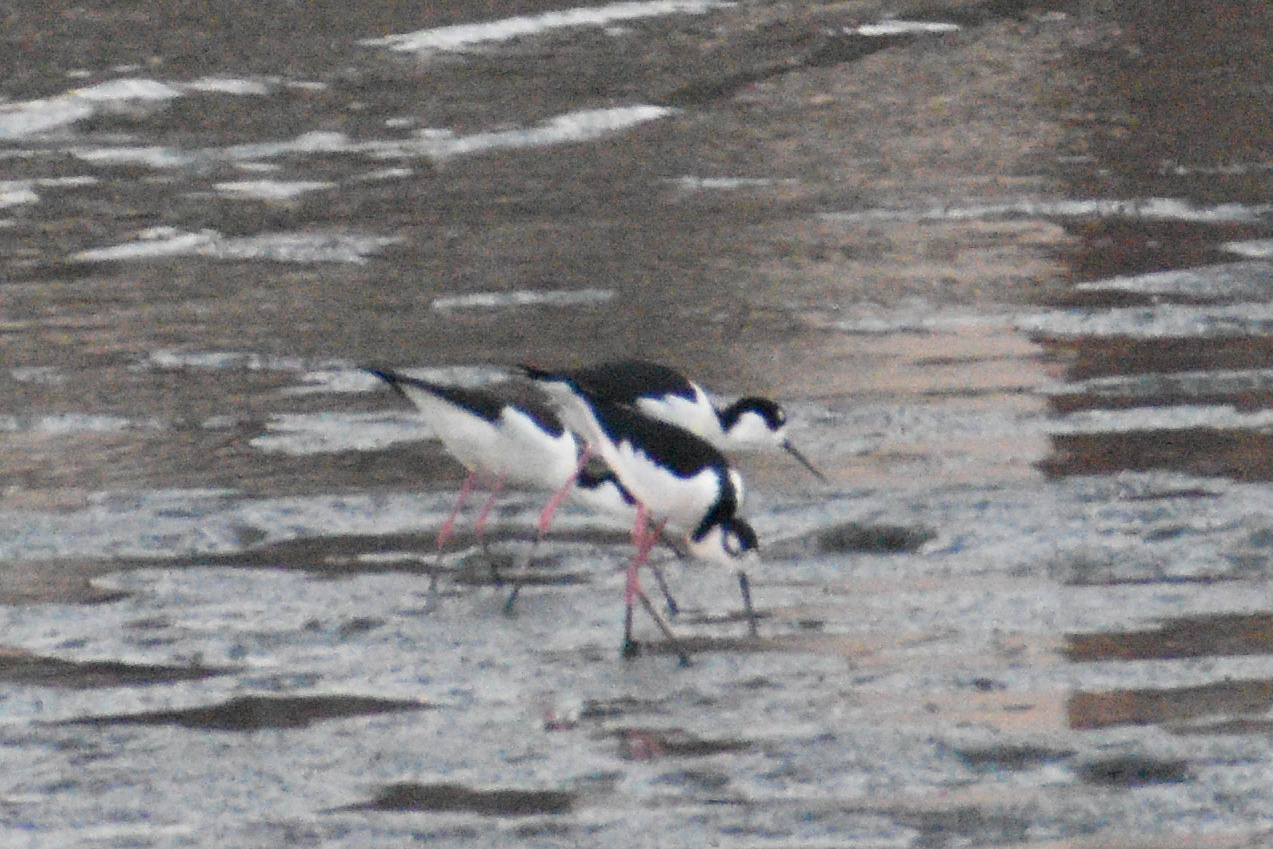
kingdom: Animalia
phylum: Chordata
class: Aves
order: Charadriiformes
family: Recurvirostridae
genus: Himantopus
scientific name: Himantopus mexicanus
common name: Black-necked stilt
